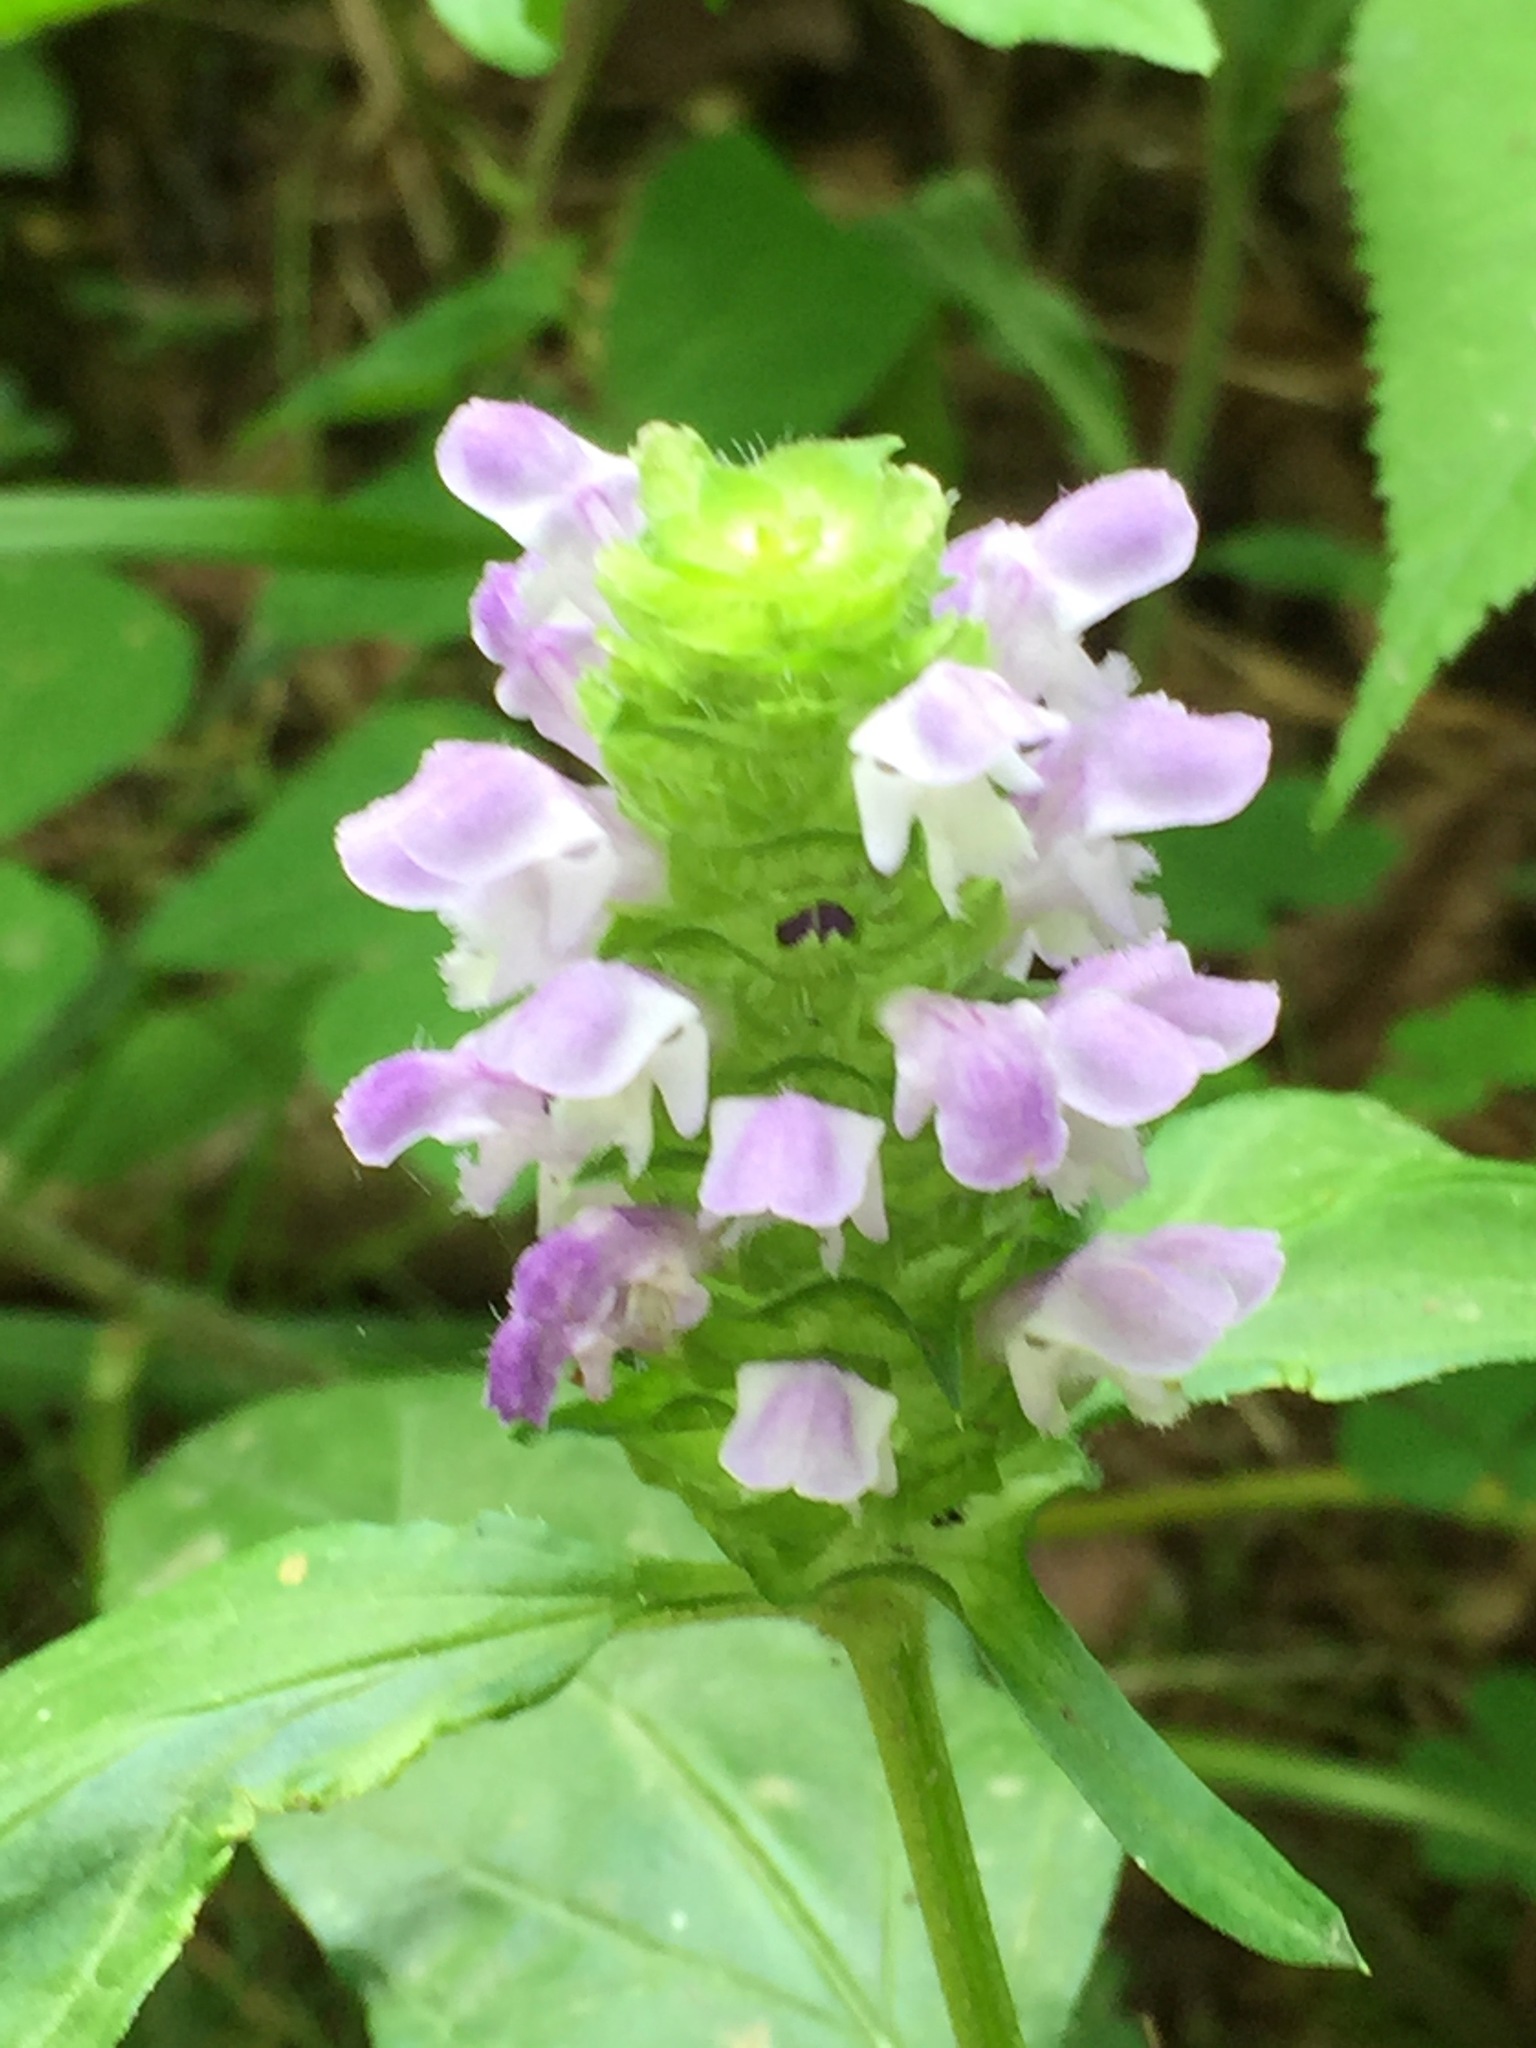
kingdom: Plantae
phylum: Tracheophyta
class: Magnoliopsida
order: Lamiales
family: Lamiaceae
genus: Prunella
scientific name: Prunella vulgaris
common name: Heal-all
